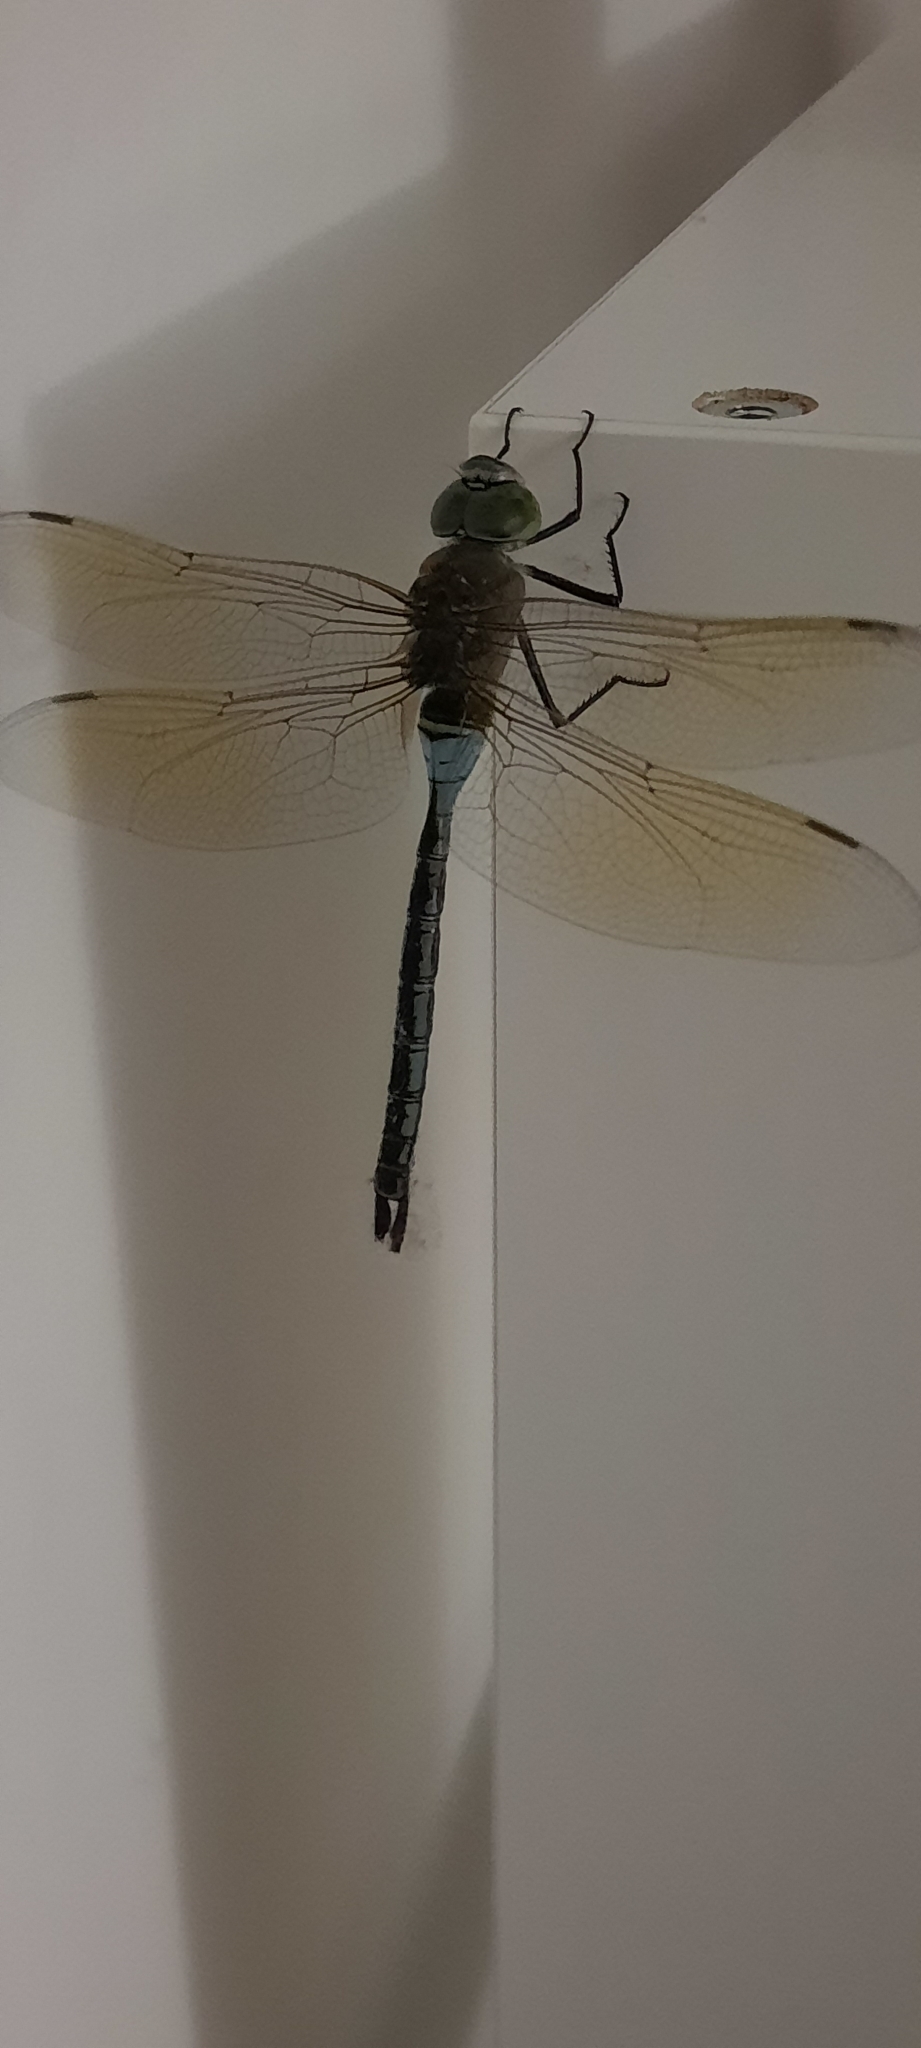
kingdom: Animalia
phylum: Arthropoda
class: Insecta
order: Odonata
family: Aeshnidae
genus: Anax
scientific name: Anax parthenope
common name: Lesser emperor
